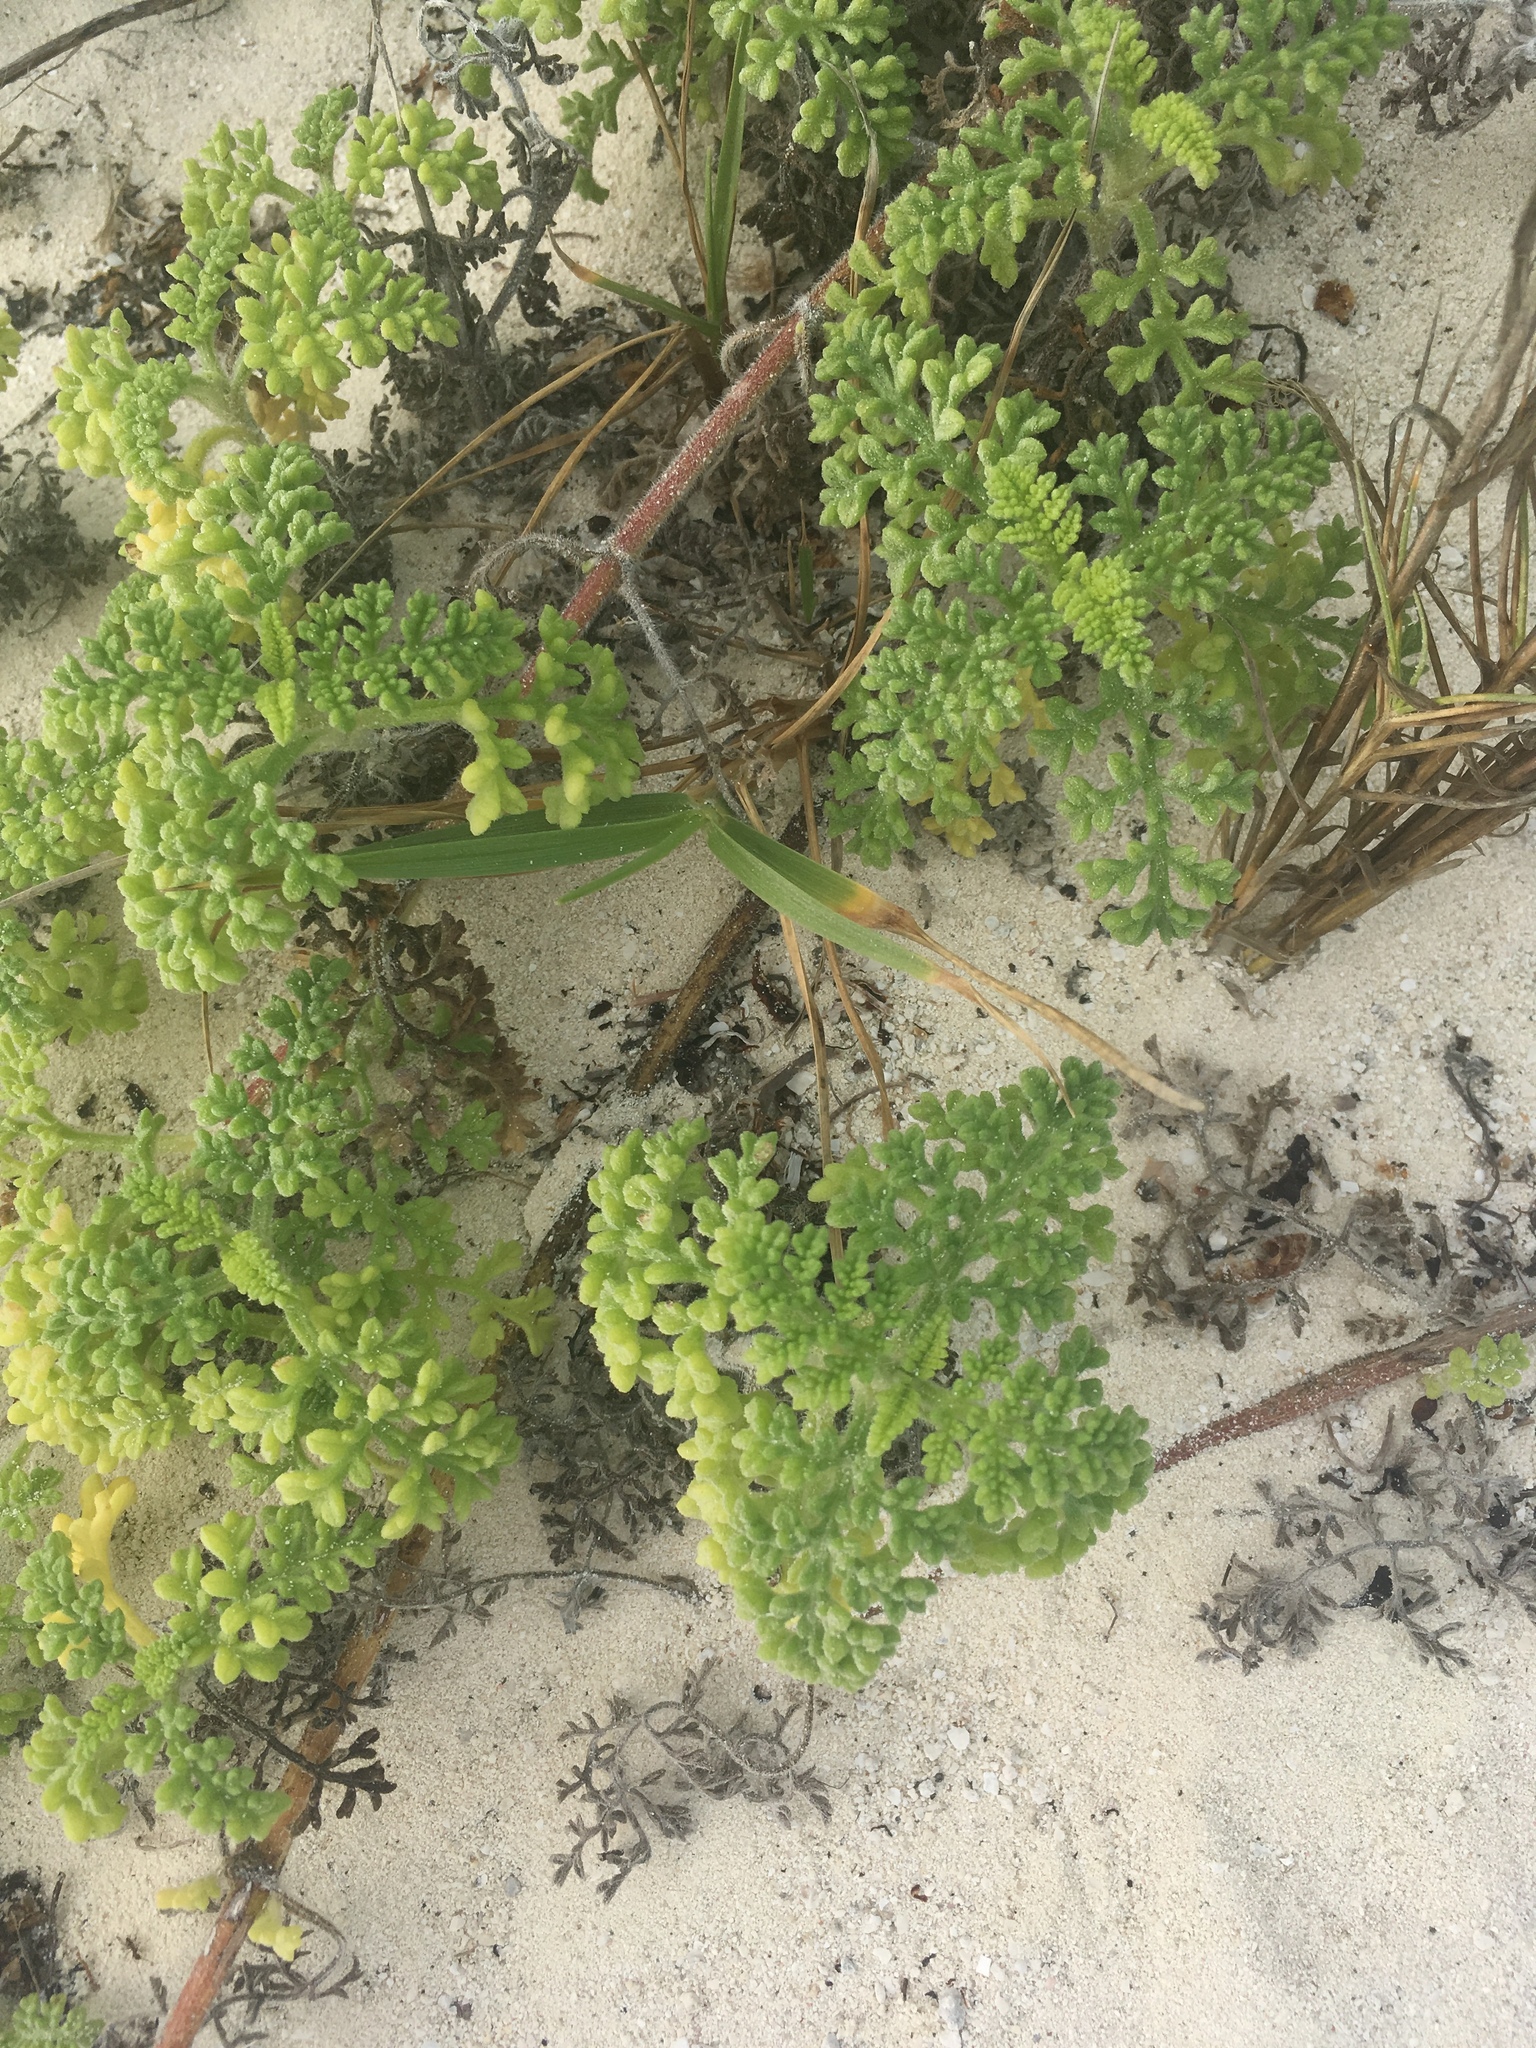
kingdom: Plantae
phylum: Tracheophyta
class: Magnoliopsida
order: Asterales
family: Asteraceae
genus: Ambrosia
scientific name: Ambrosia hispida
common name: Coastal ragweed
